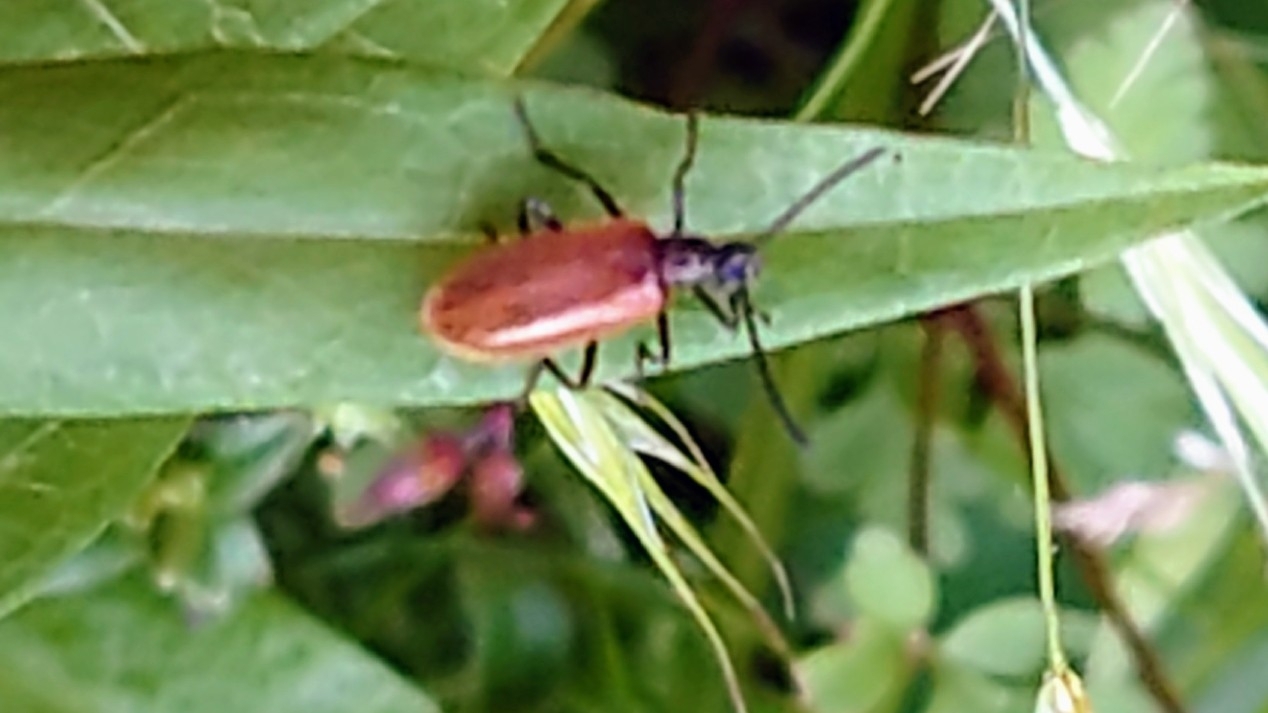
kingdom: Animalia
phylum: Arthropoda
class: Insecta
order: Coleoptera
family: Tenebrionidae
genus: Lagria
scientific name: Lagria hirta
